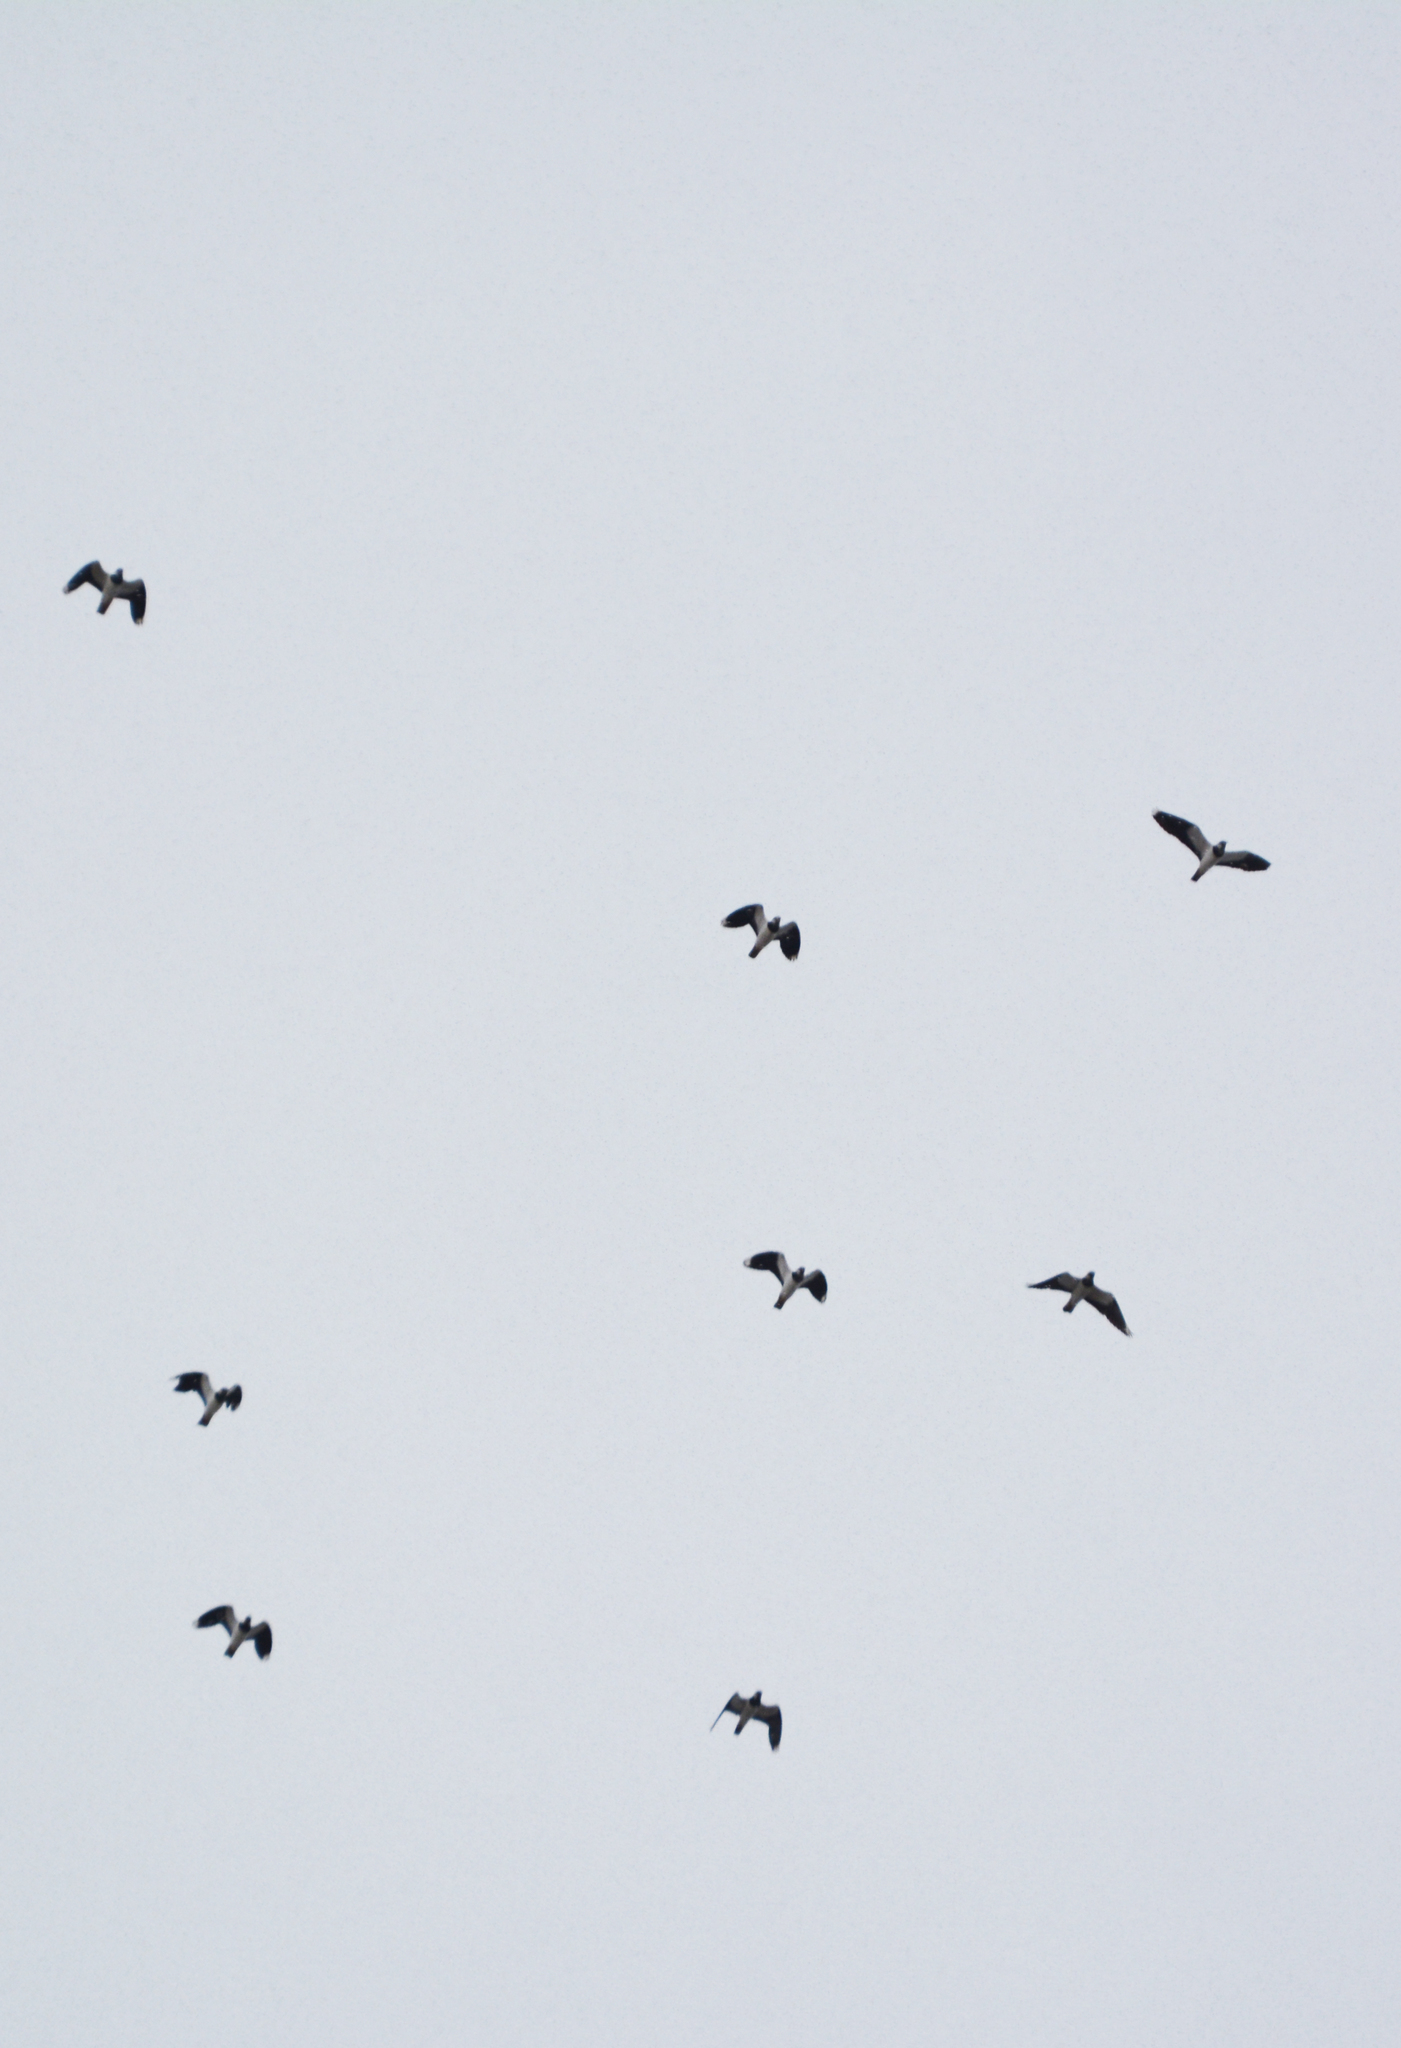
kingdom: Animalia
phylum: Chordata
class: Aves
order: Charadriiformes
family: Charadriidae
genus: Vanellus
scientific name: Vanellus vanellus
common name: Northern lapwing
